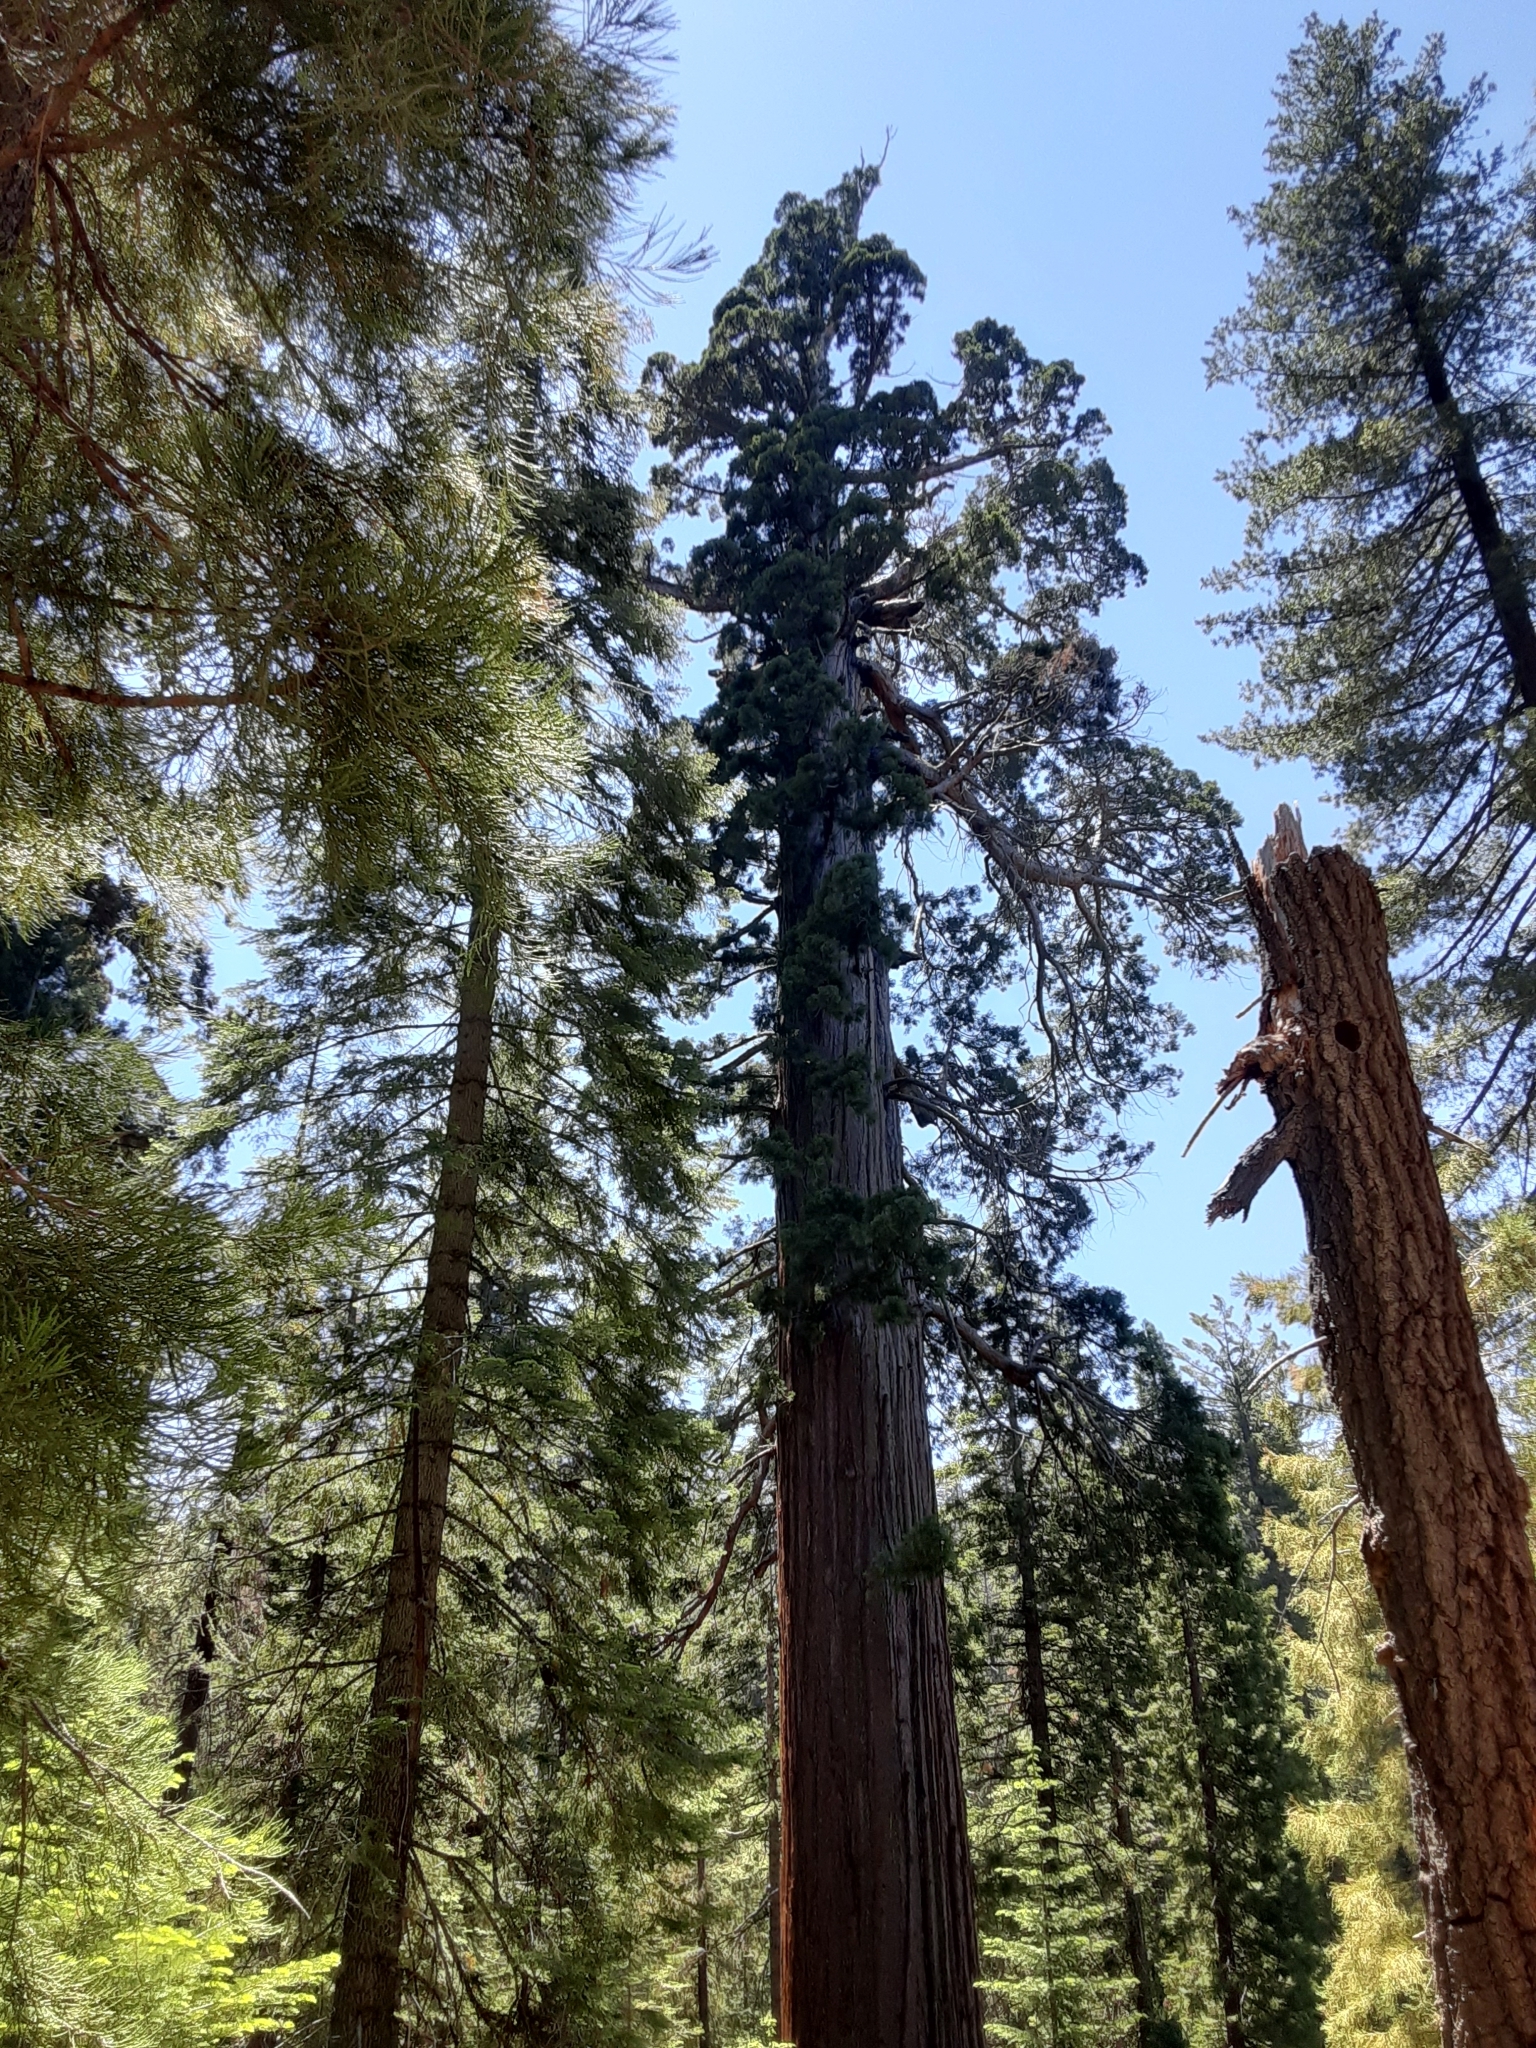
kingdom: Plantae
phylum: Tracheophyta
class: Pinopsida
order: Pinales
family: Cupressaceae
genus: Sequoiadendron
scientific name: Sequoiadendron giganteum
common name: Wellingtonia
